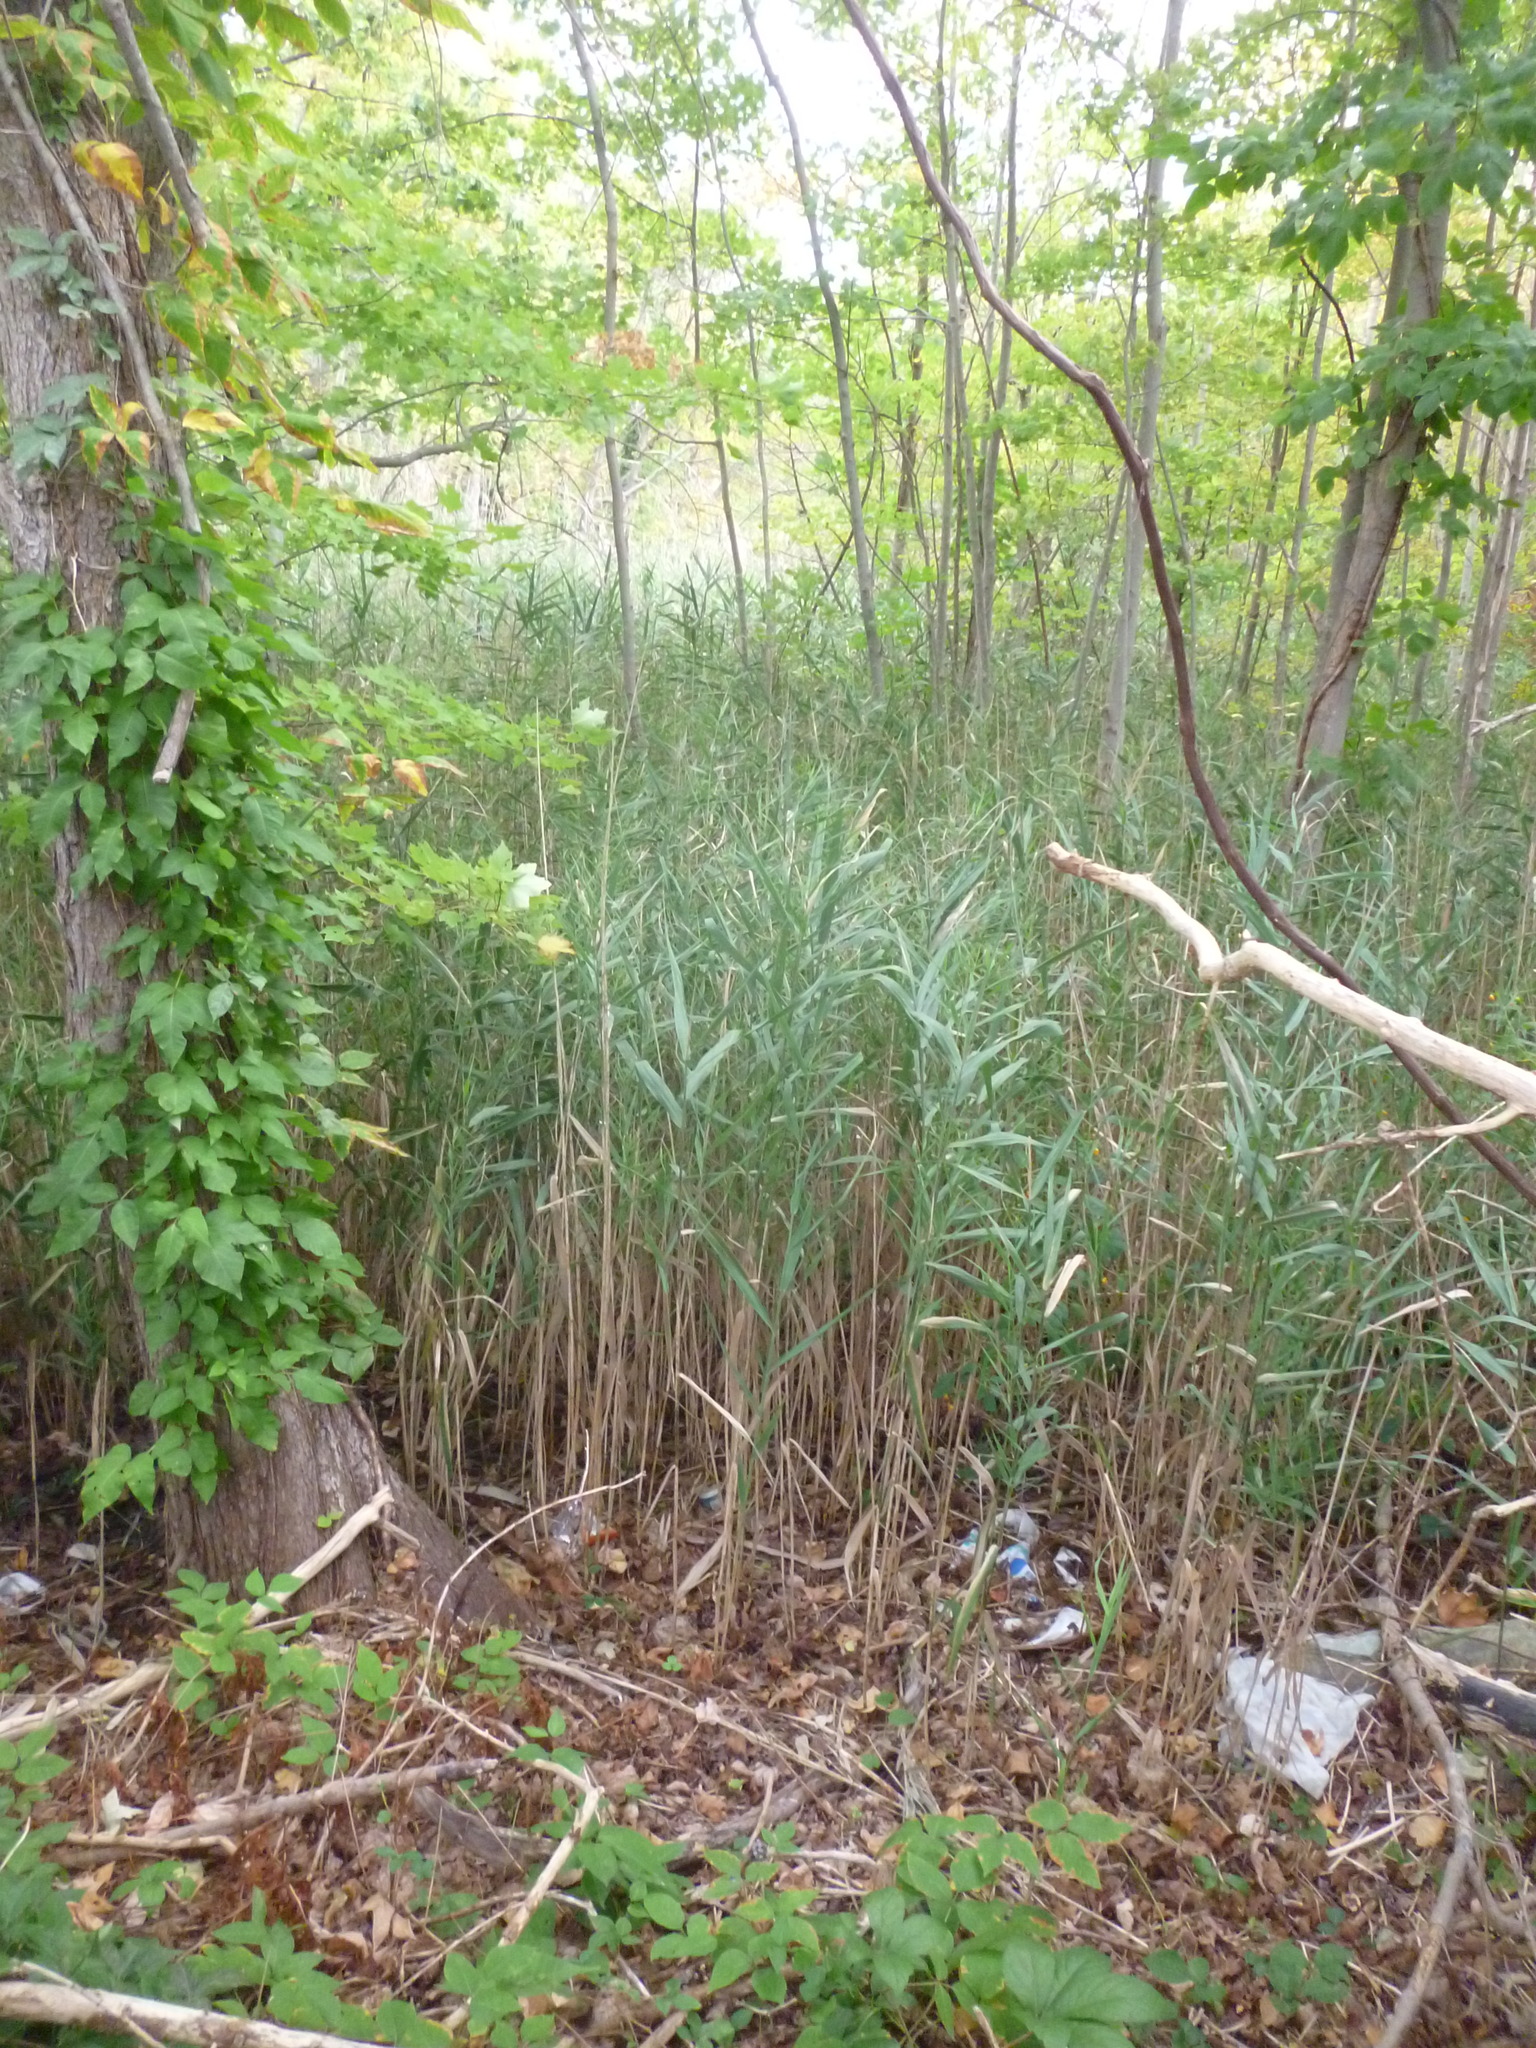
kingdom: Plantae
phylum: Tracheophyta
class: Liliopsida
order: Poales
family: Poaceae
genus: Phragmites
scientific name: Phragmites australis
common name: Common reed
